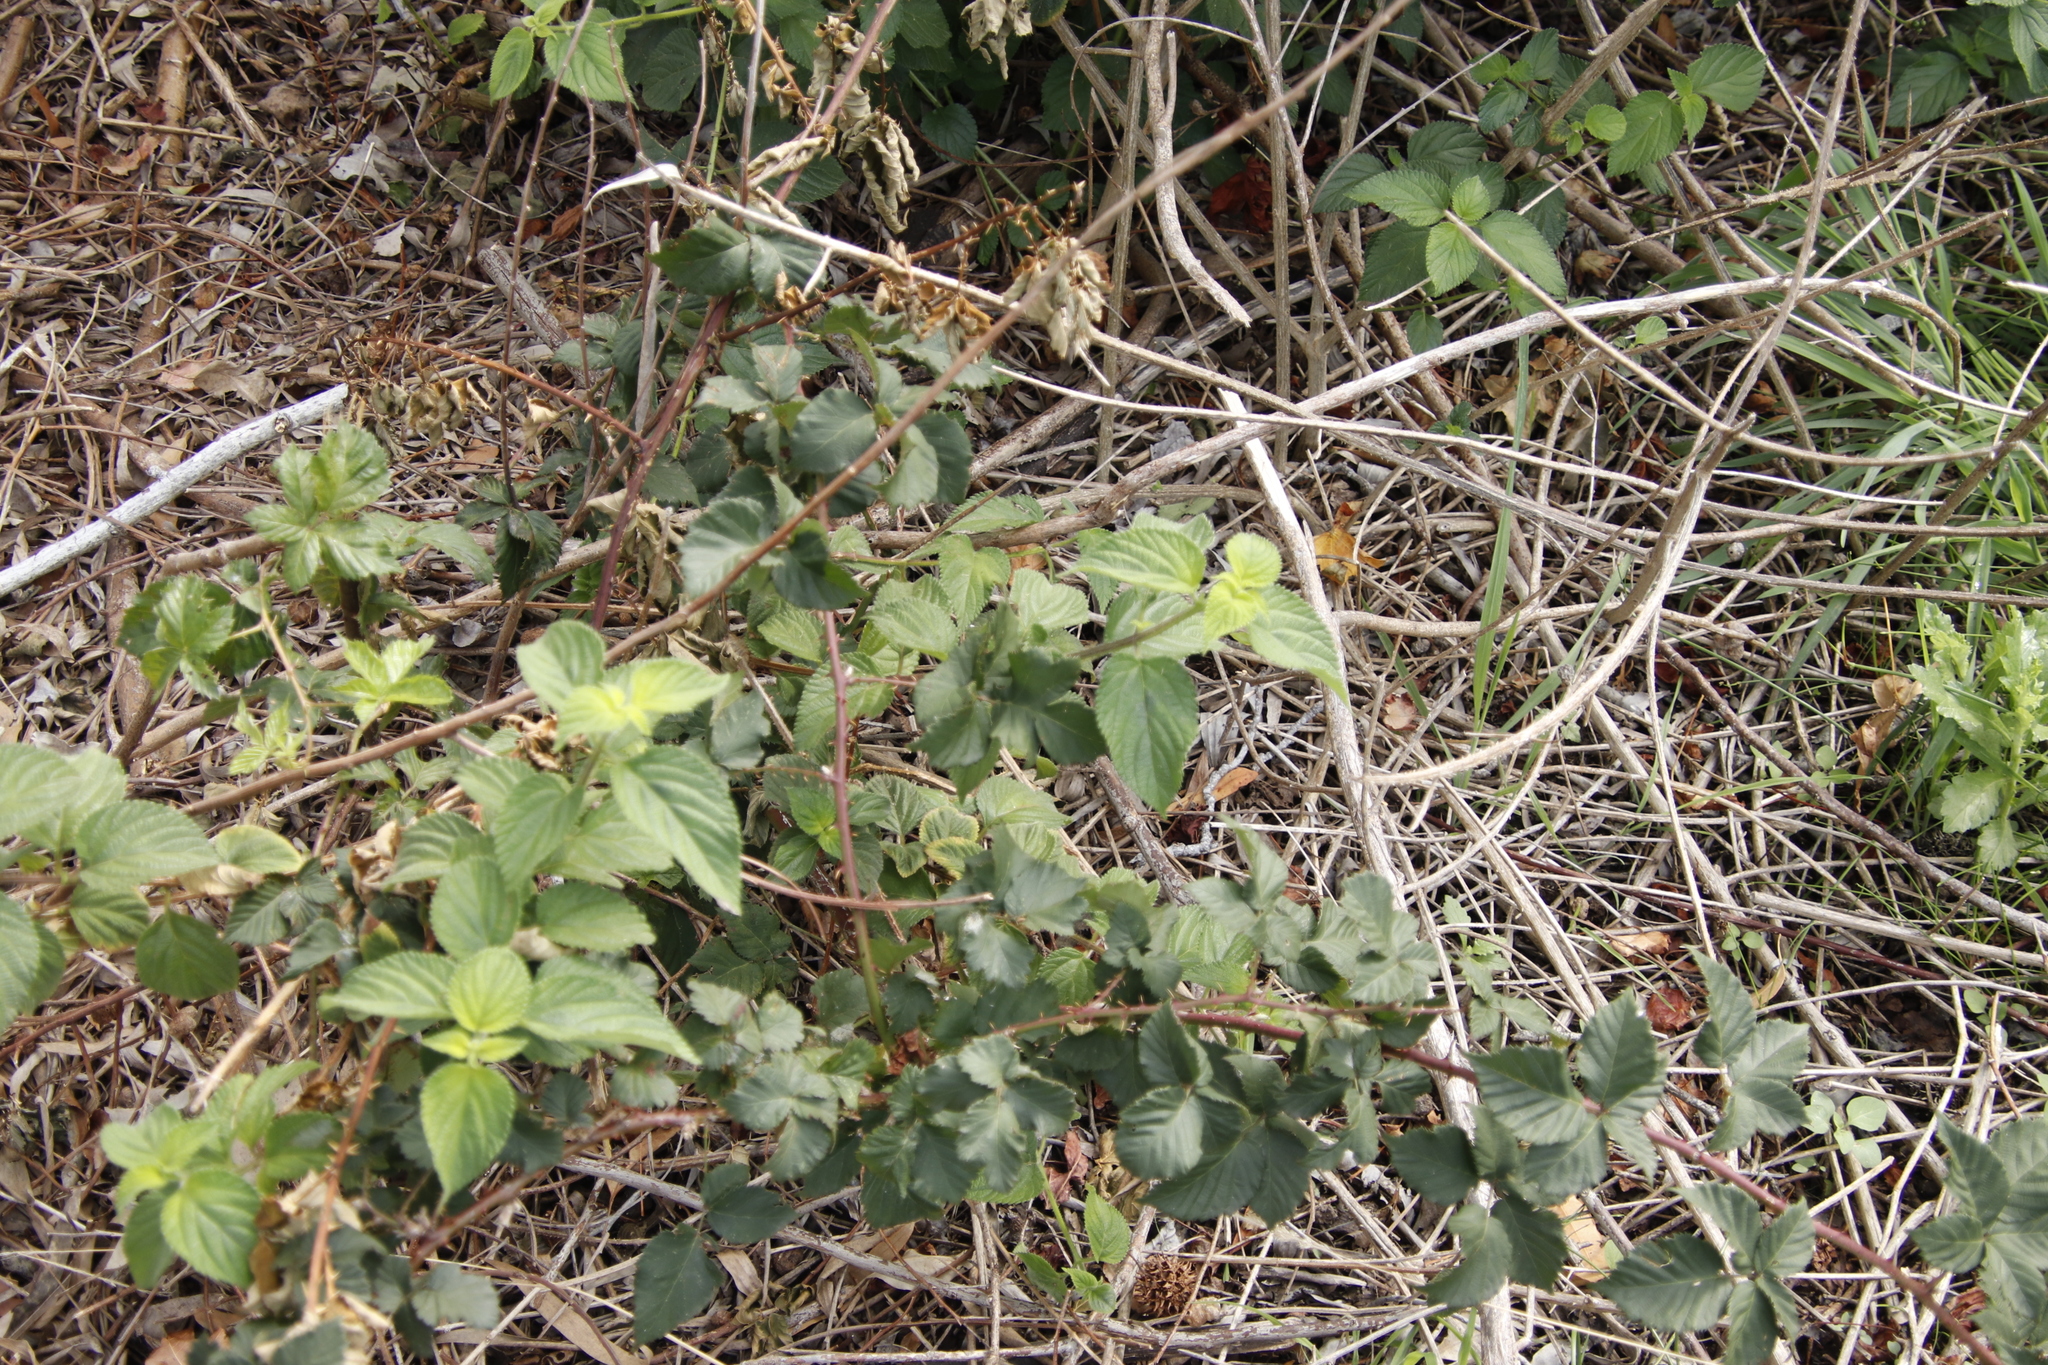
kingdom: Plantae
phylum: Tracheophyta
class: Magnoliopsida
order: Rosales
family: Rosaceae
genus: Rubus
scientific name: Rubus affinis
